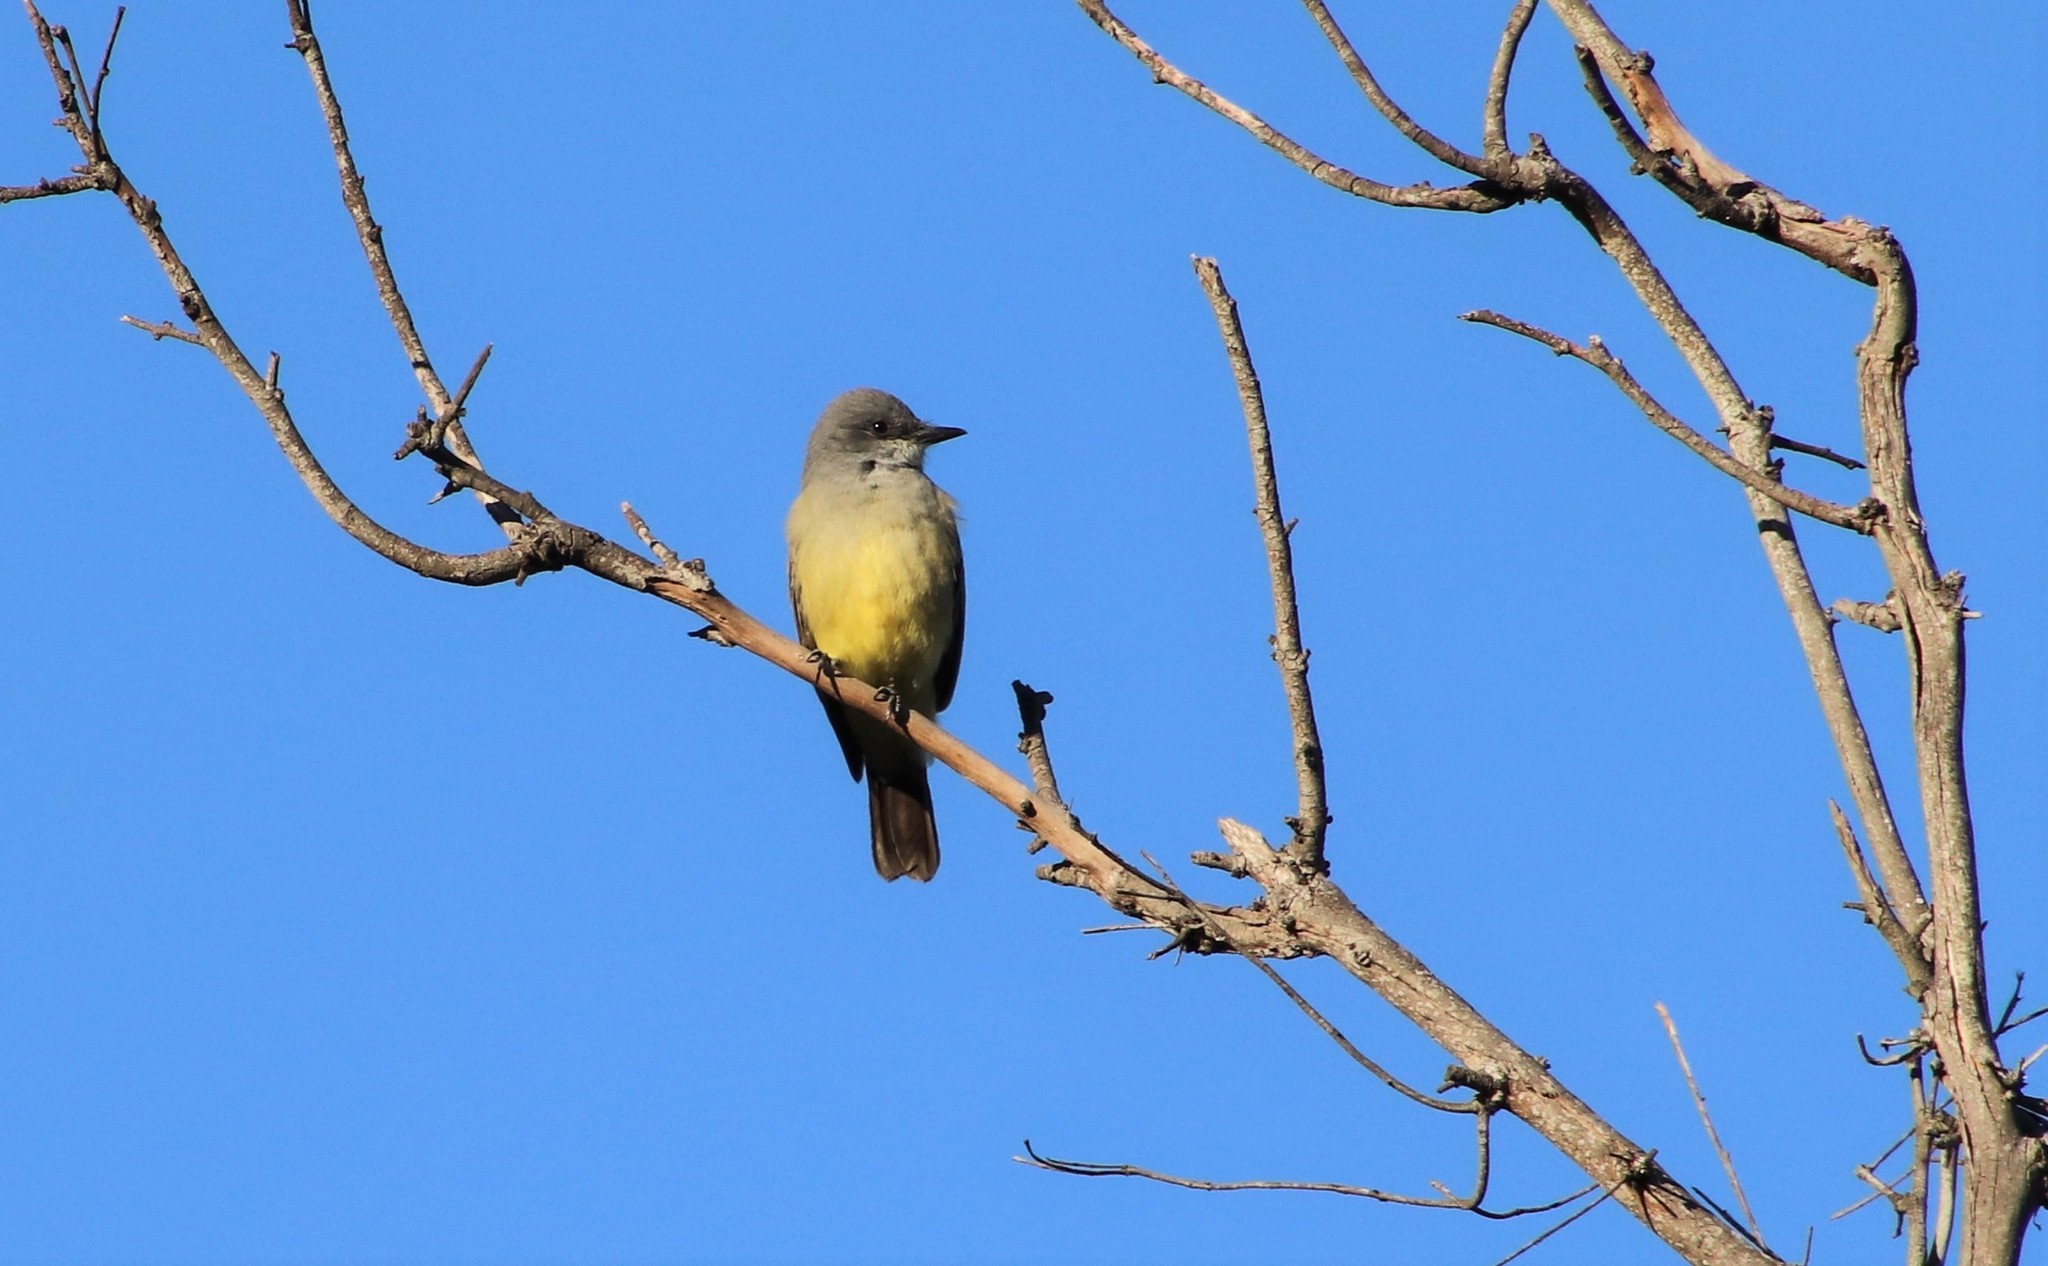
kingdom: Animalia
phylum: Chordata
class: Aves
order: Passeriformes
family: Tyrannidae
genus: Tyrannus
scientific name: Tyrannus vociferans
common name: Cassin's kingbird
